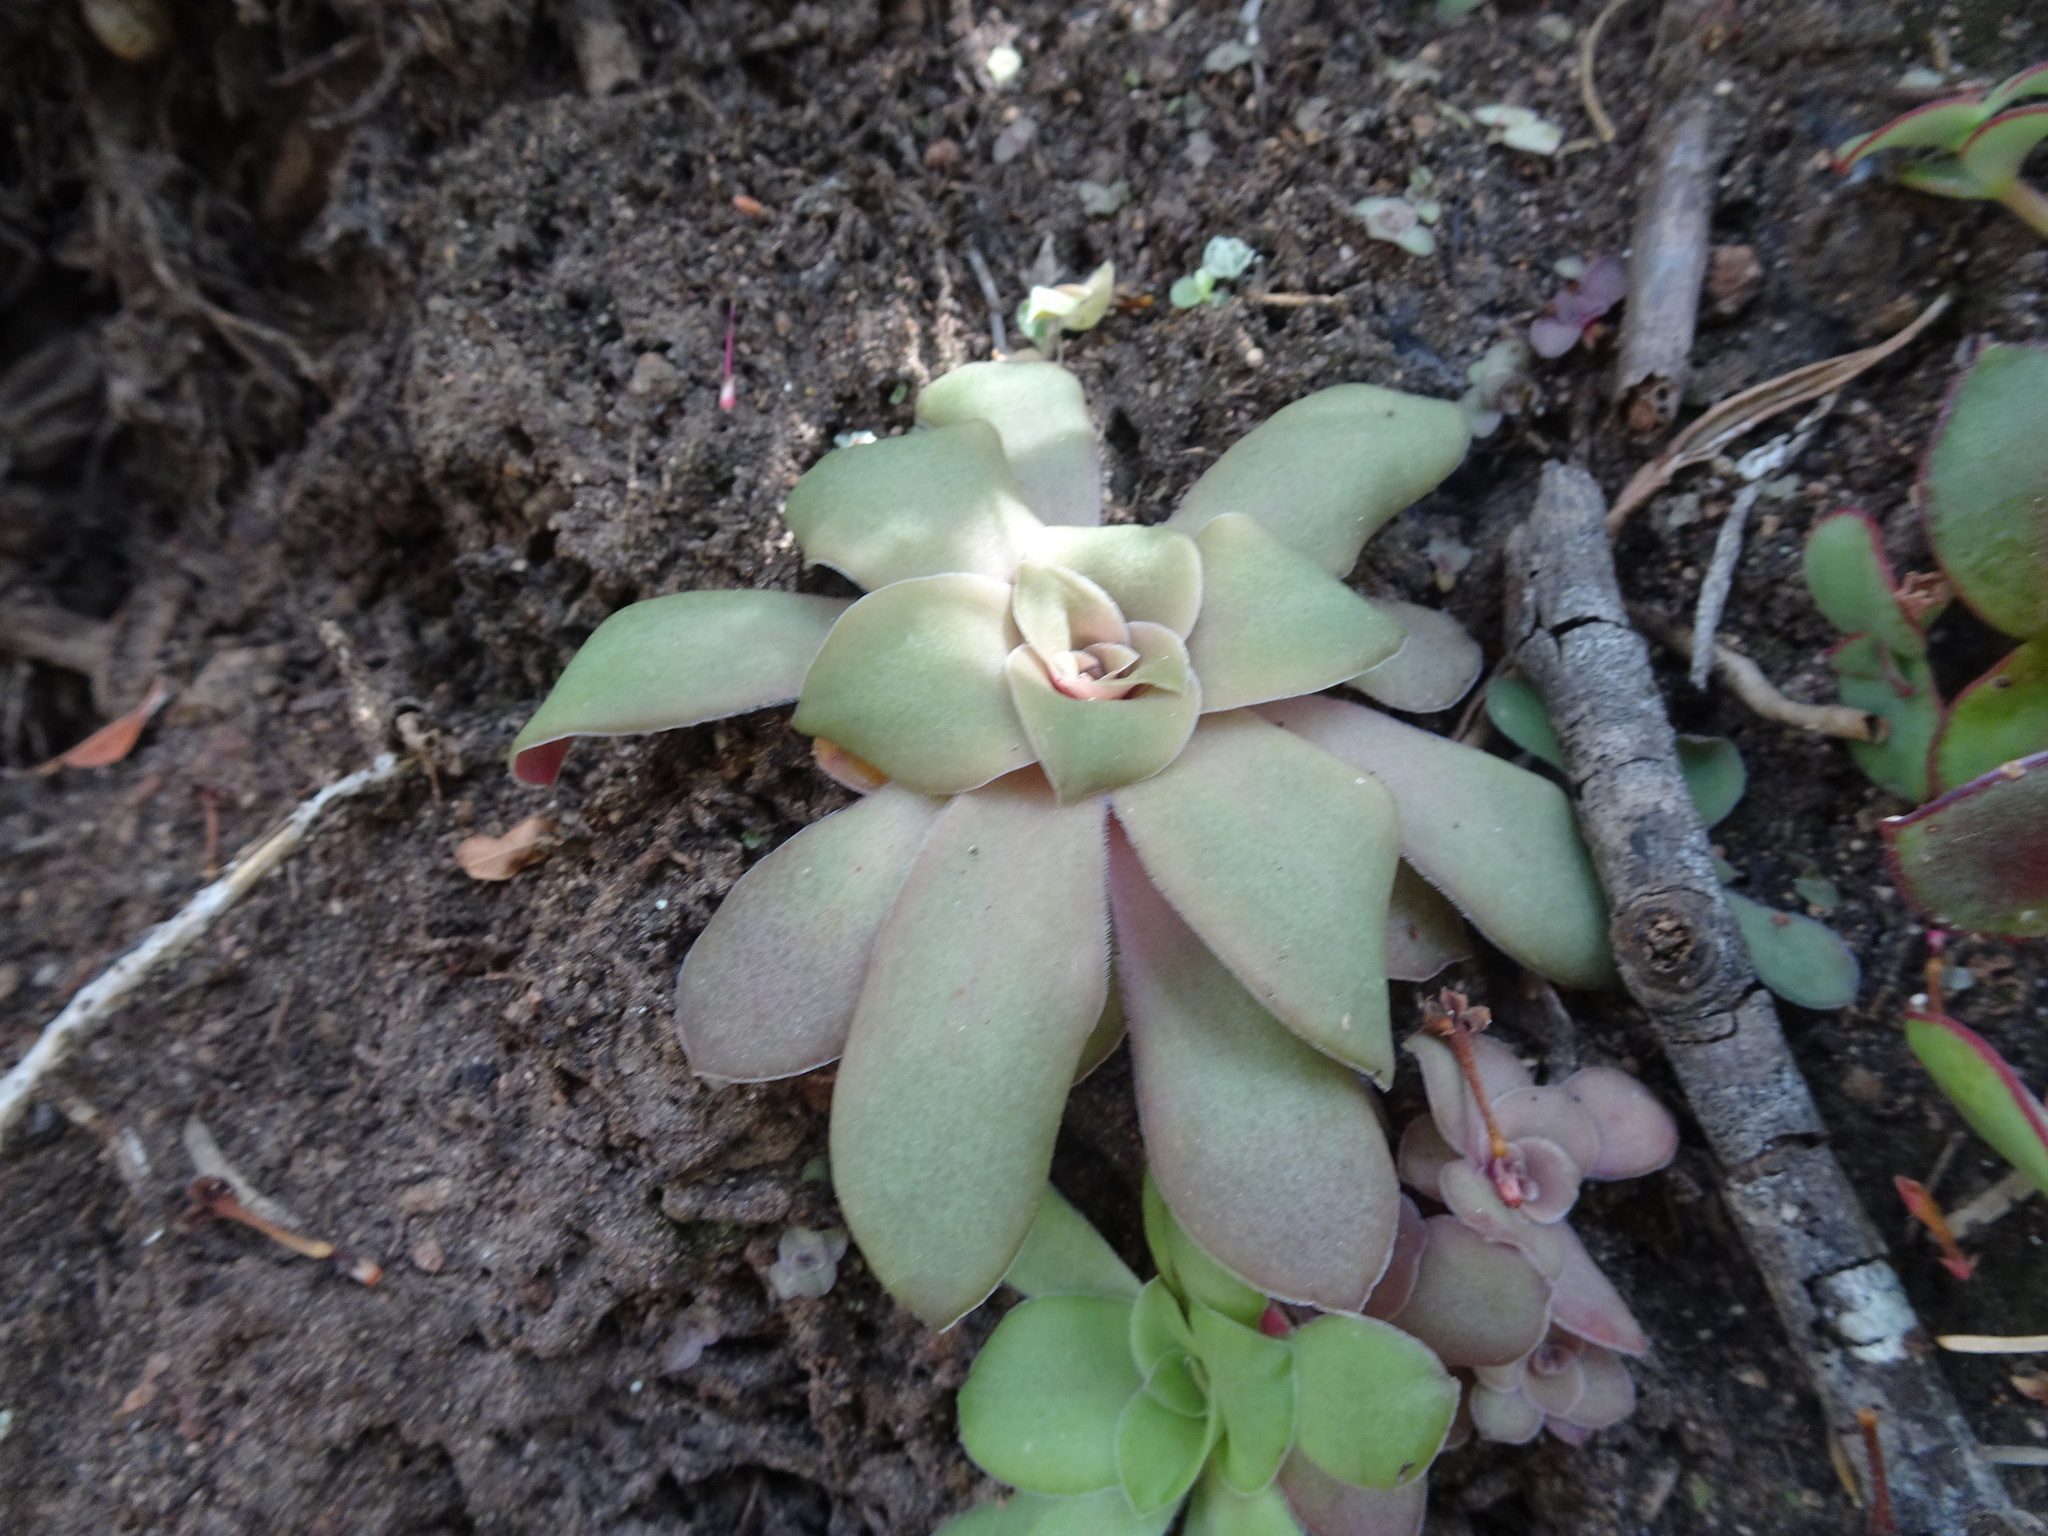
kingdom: Plantae
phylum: Tracheophyta
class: Magnoliopsida
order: Saxifragales
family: Crassulaceae
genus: Crassula
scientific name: Crassula orbicularis
